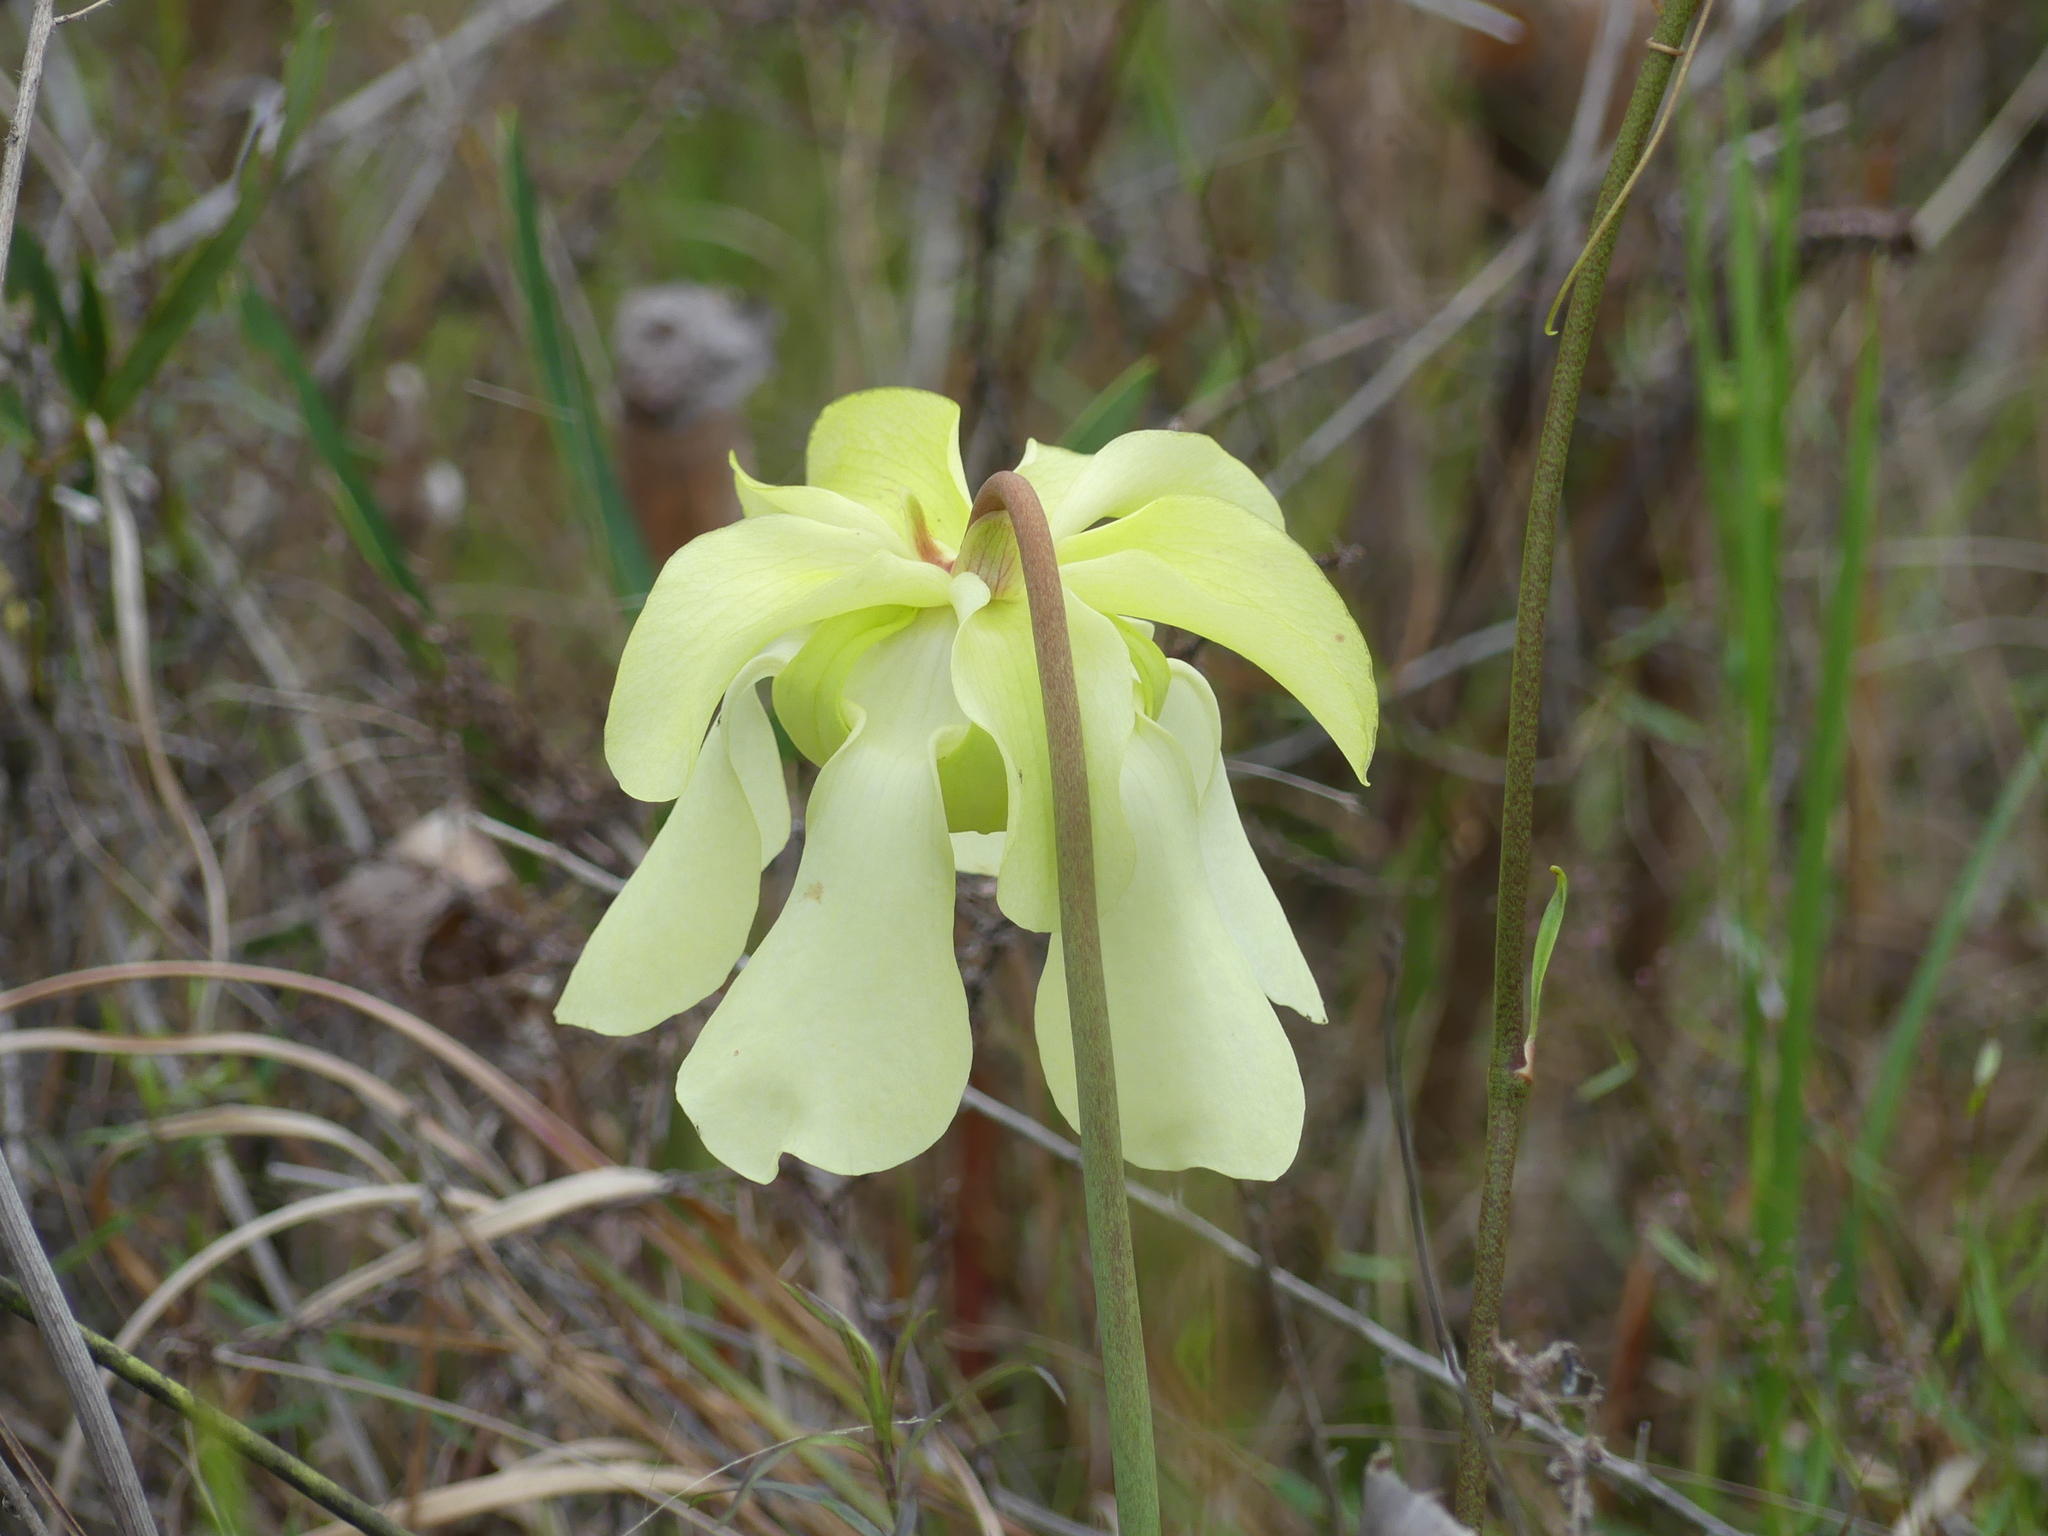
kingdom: Plantae
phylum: Tracheophyta
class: Magnoliopsida
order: Ericales
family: Sarraceniaceae
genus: Sarracenia
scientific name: Sarracenia alata
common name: Yellow trumpets
